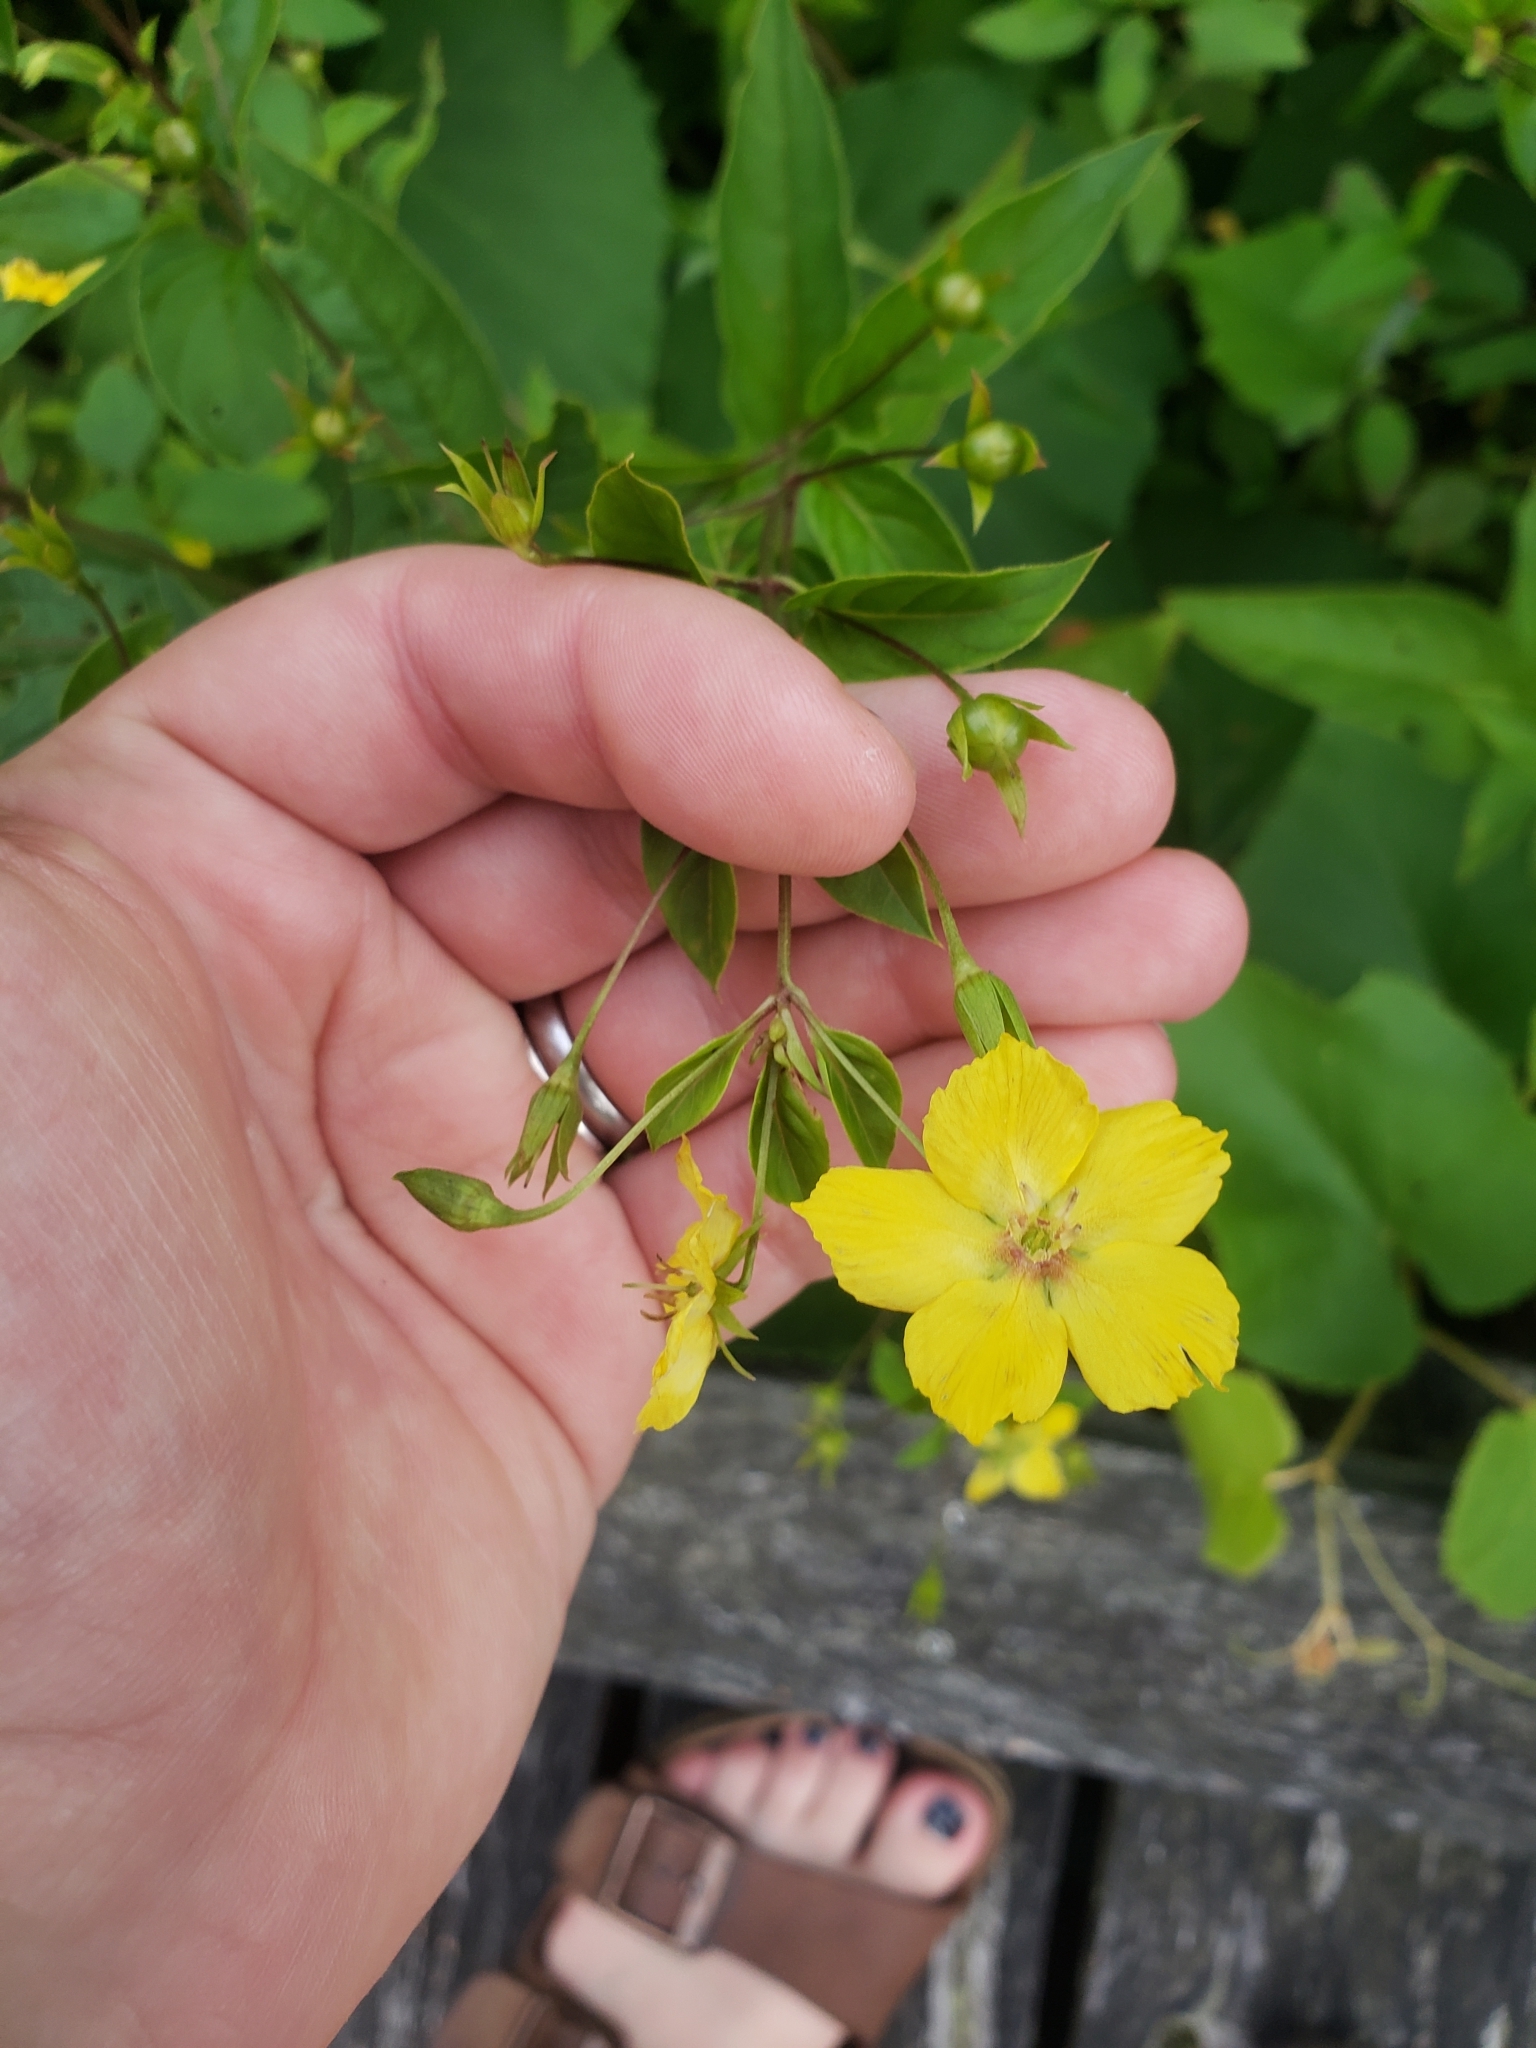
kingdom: Plantae
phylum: Tracheophyta
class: Magnoliopsida
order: Ericales
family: Primulaceae
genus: Lysimachia
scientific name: Lysimachia ciliata
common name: Fringed loosestrife
